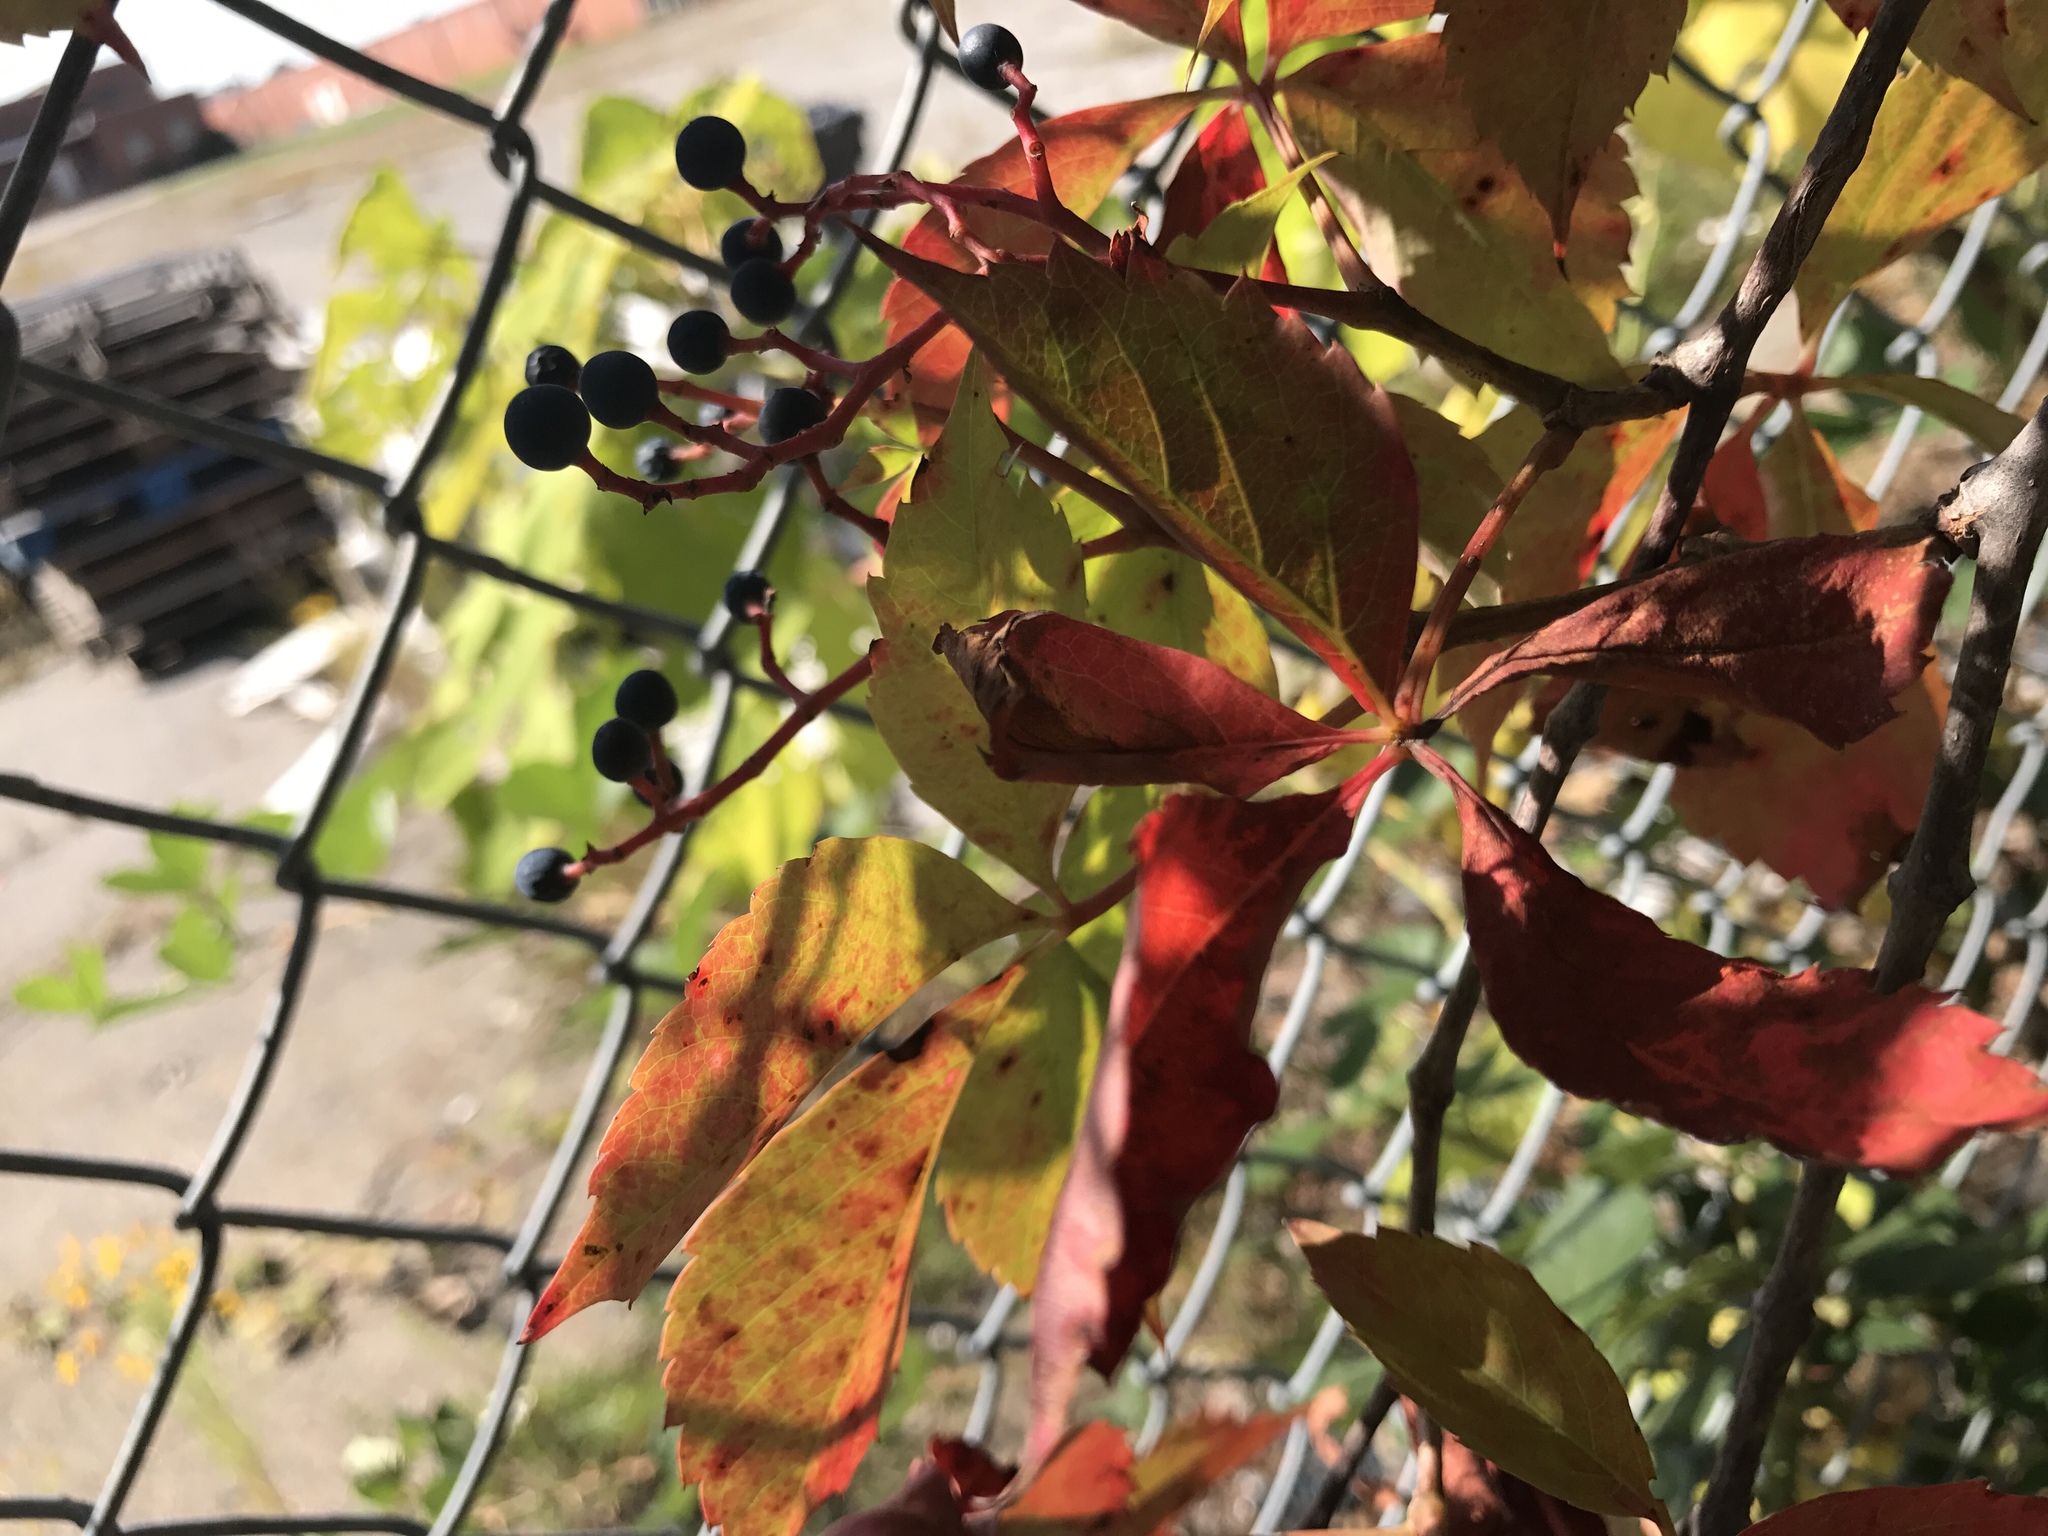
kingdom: Plantae
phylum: Tracheophyta
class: Magnoliopsida
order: Vitales
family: Vitaceae
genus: Parthenocissus
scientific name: Parthenocissus quinquefolia
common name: Virginia-creeper
